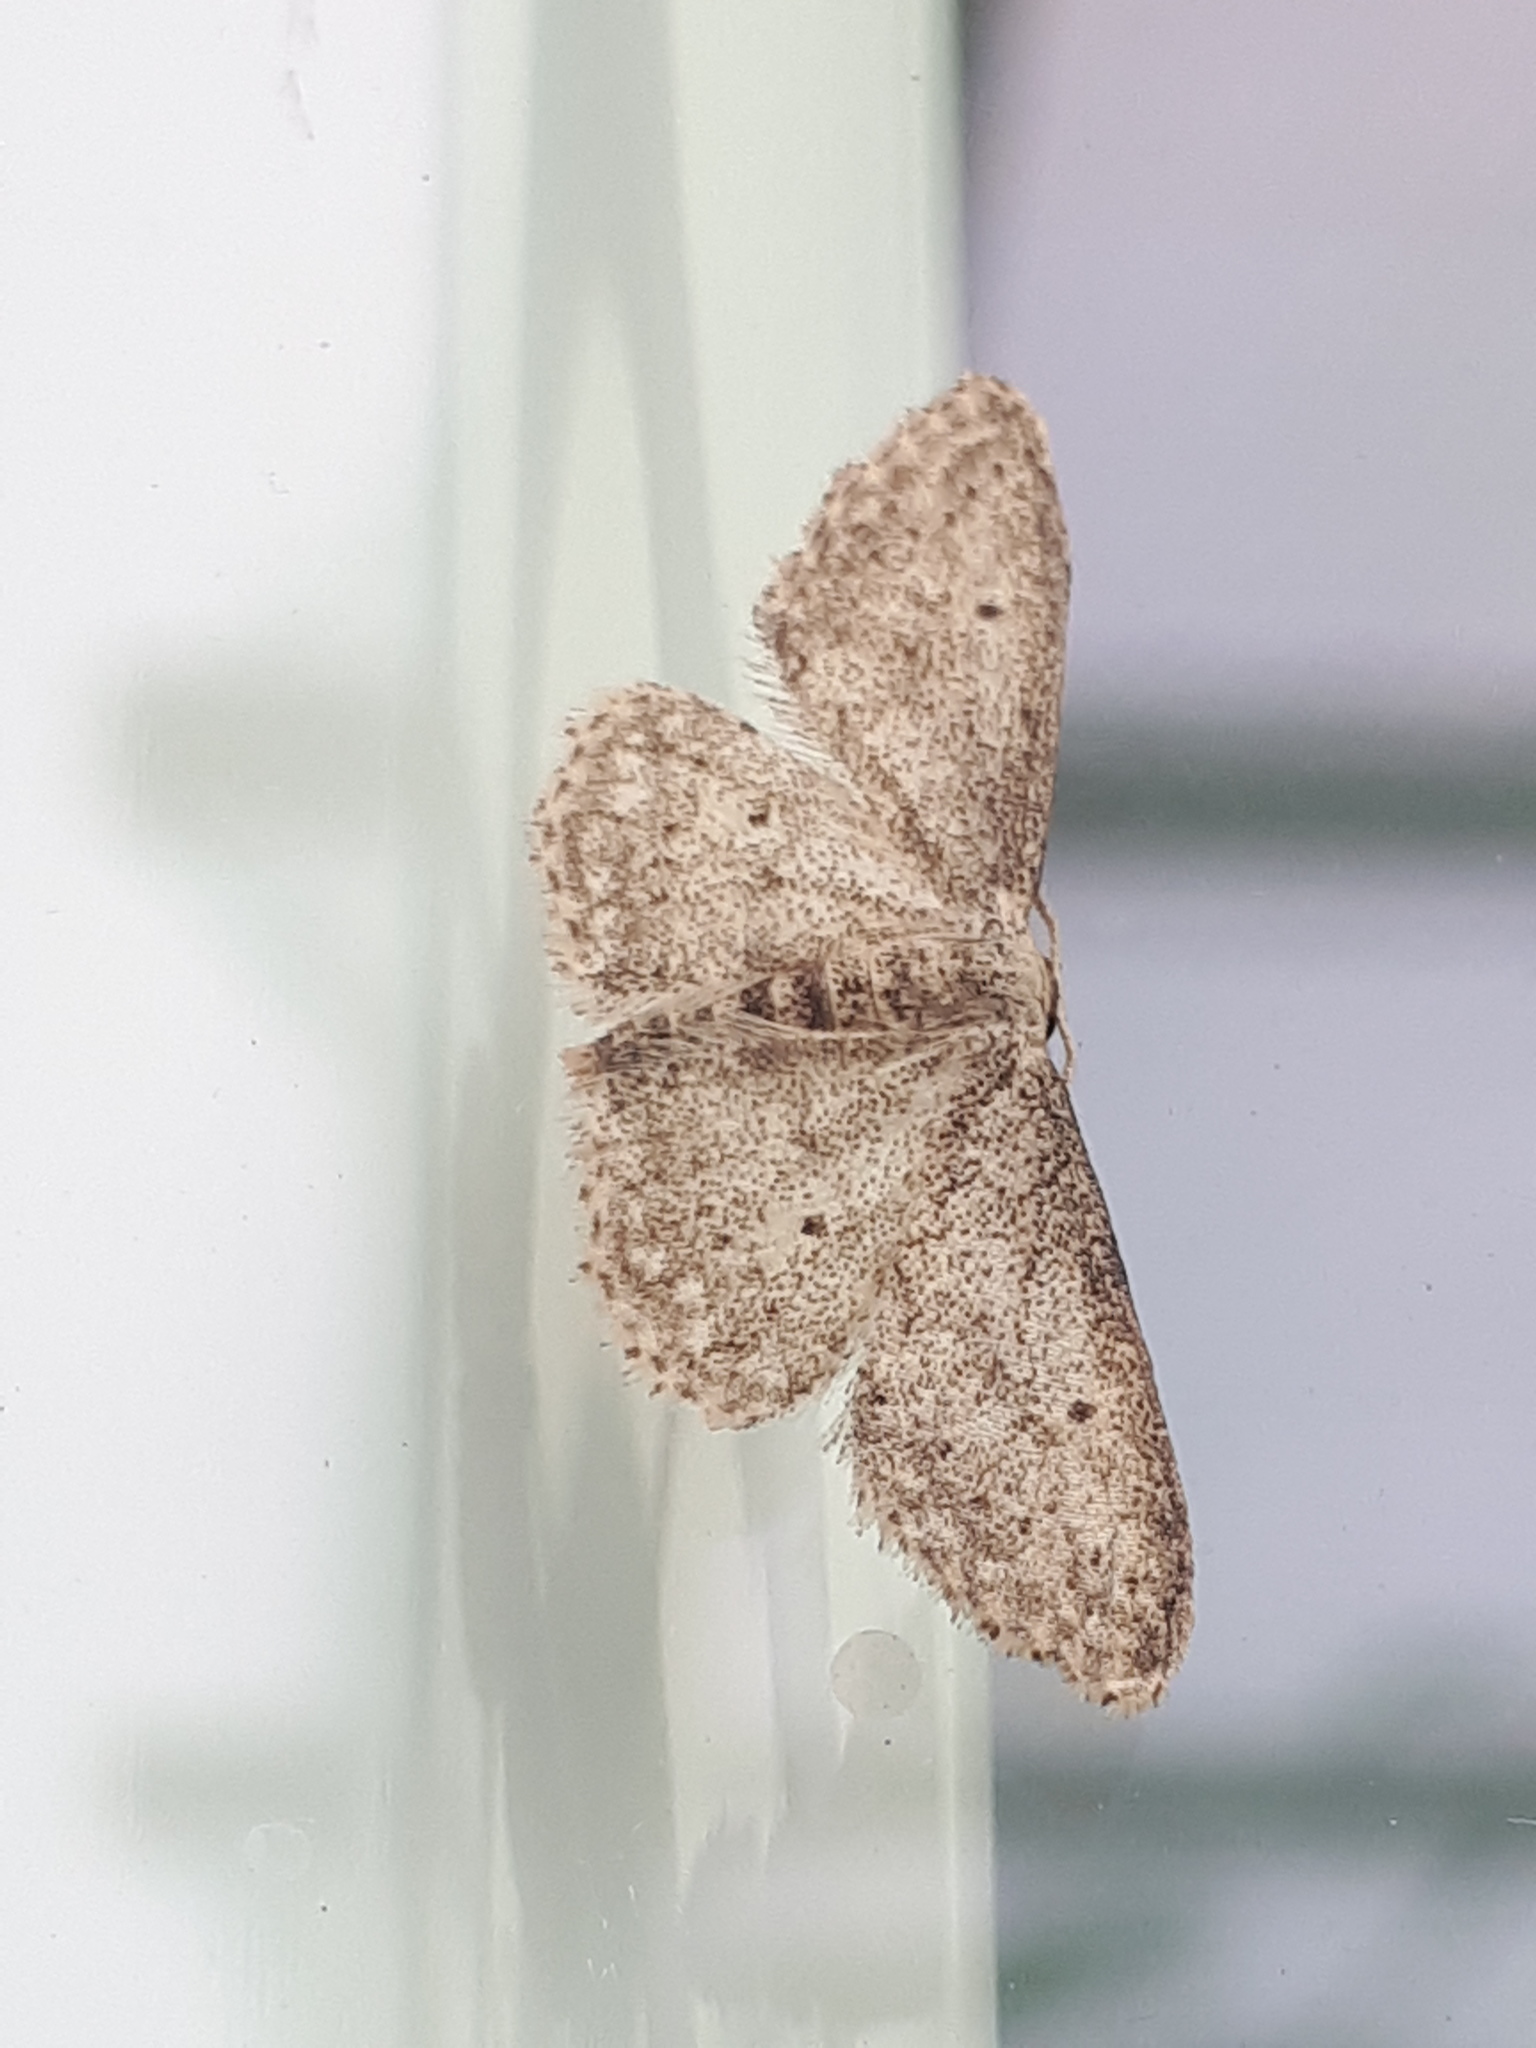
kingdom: Animalia
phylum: Arthropoda
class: Insecta
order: Lepidoptera
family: Geometridae
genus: Idaea
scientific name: Idaea seriata
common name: Small dusty wave
